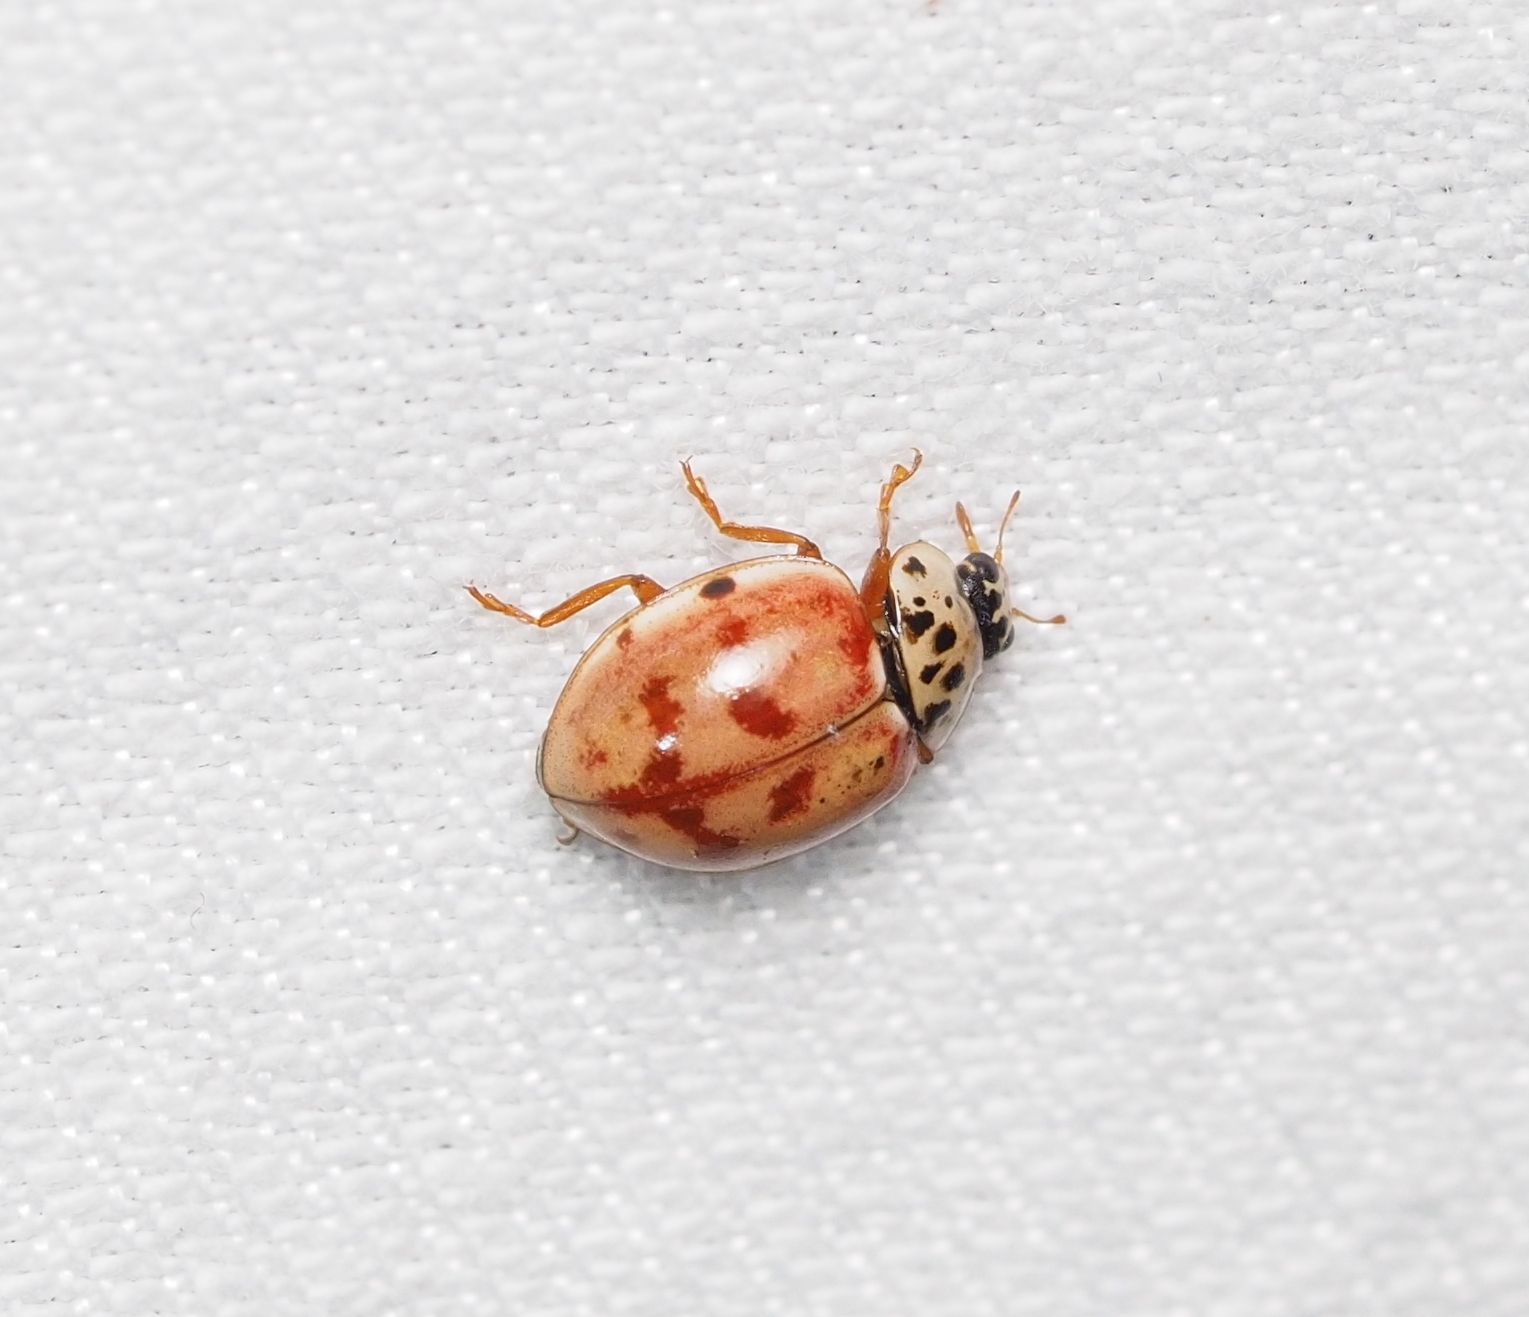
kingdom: Animalia
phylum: Arthropoda
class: Insecta
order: Coleoptera
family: Coccinellidae
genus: Harmonia
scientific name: Harmonia quadripunctata
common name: Cream-streaked ladybird
